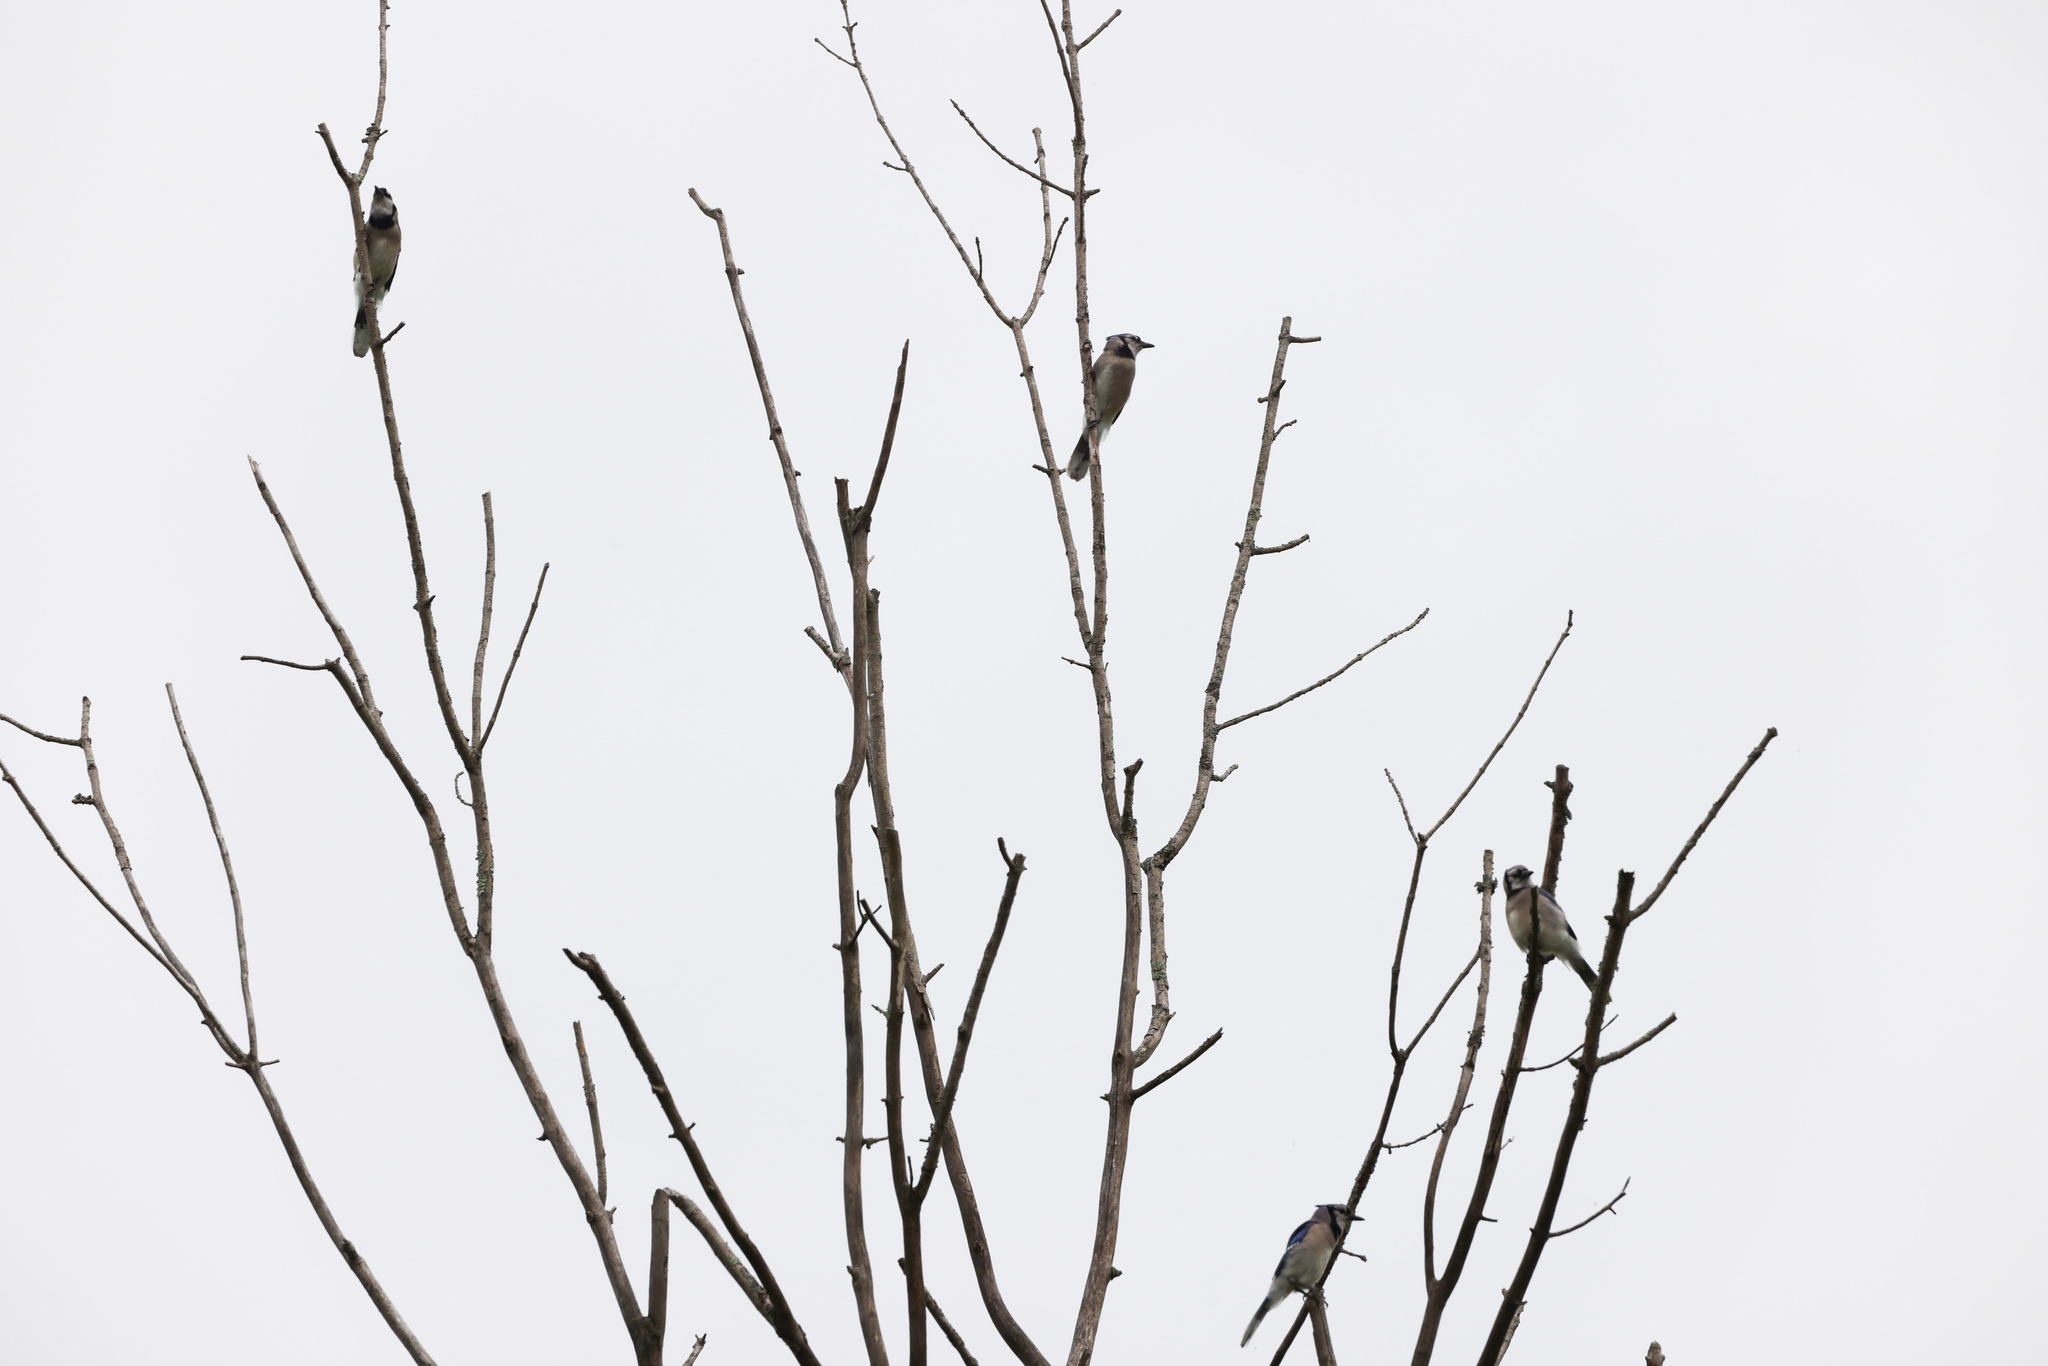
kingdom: Animalia
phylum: Chordata
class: Aves
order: Passeriformes
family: Corvidae
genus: Cyanocitta
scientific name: Cyanocitta cristata
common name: Blue jay
